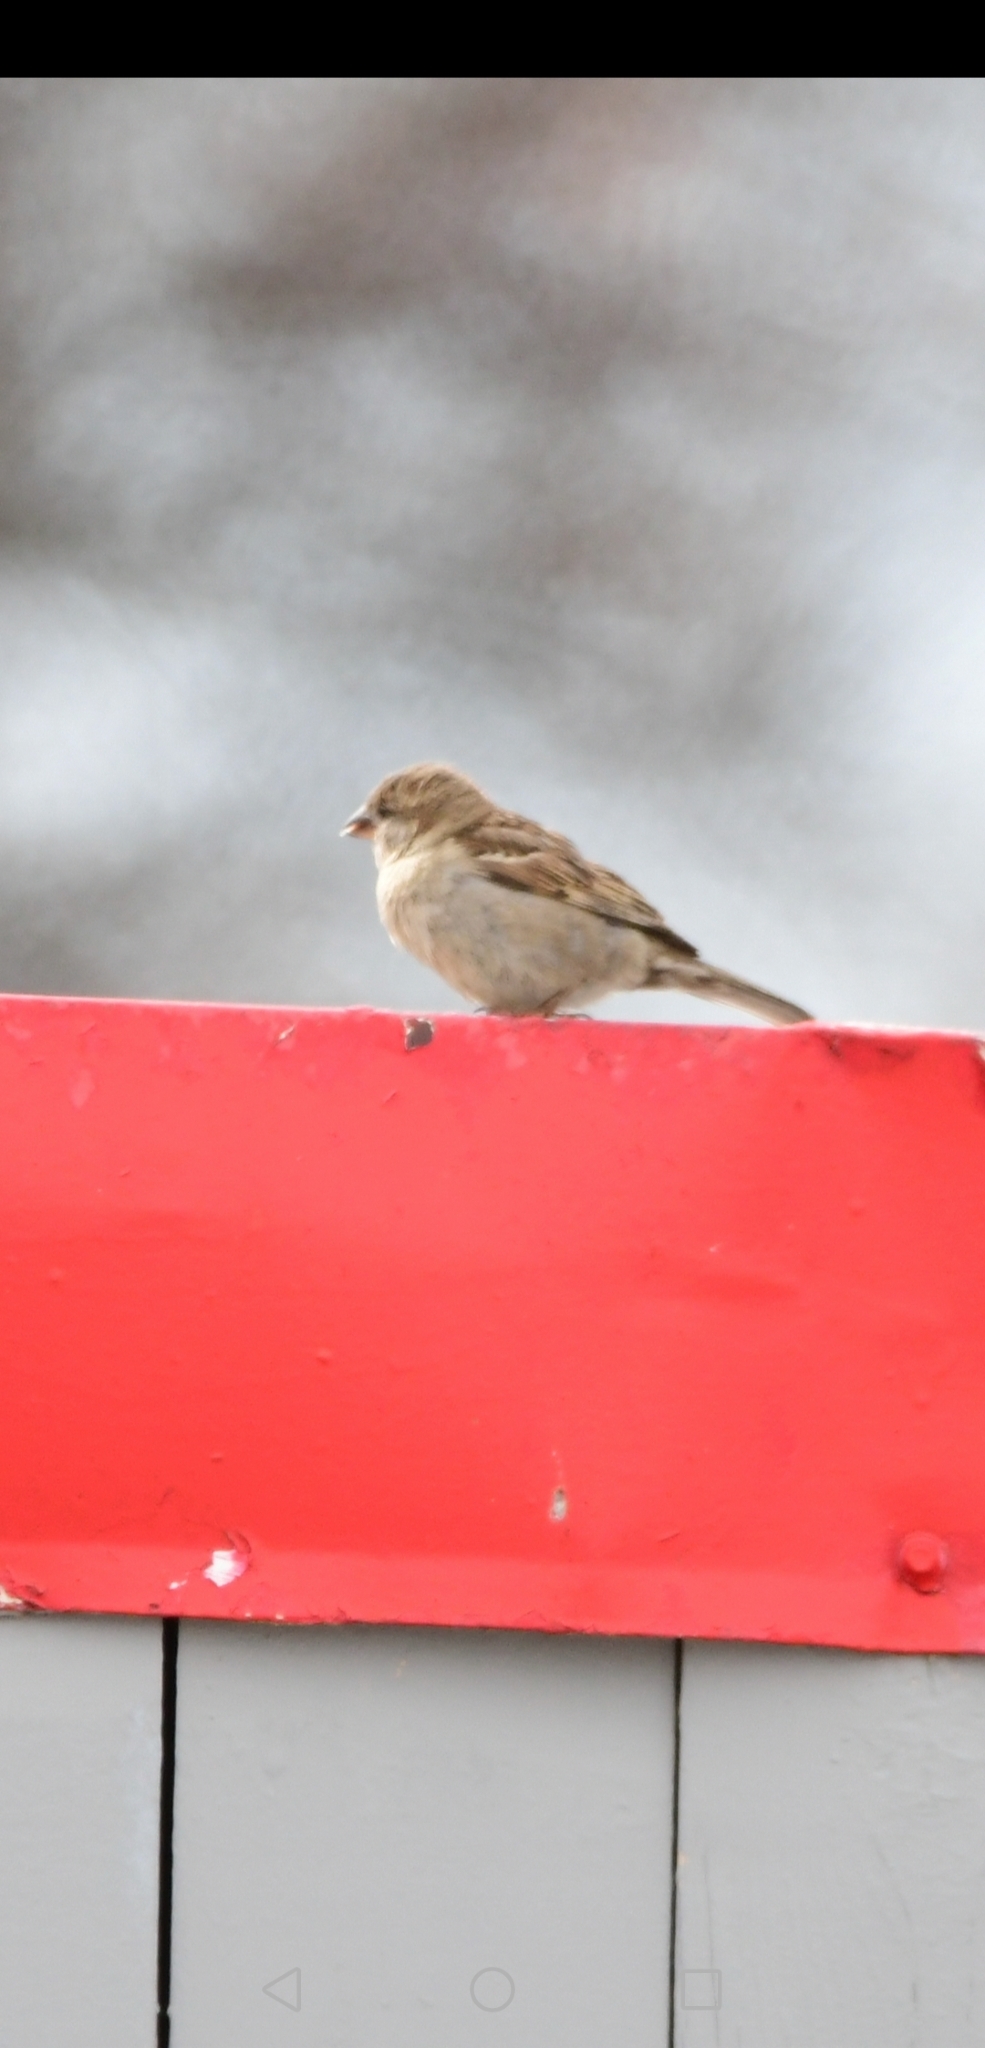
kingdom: Animalia
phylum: Chordata
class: Aves
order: Passeriformes
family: Passeridae
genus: Passer
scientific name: Passer domesticus
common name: House sparrow
